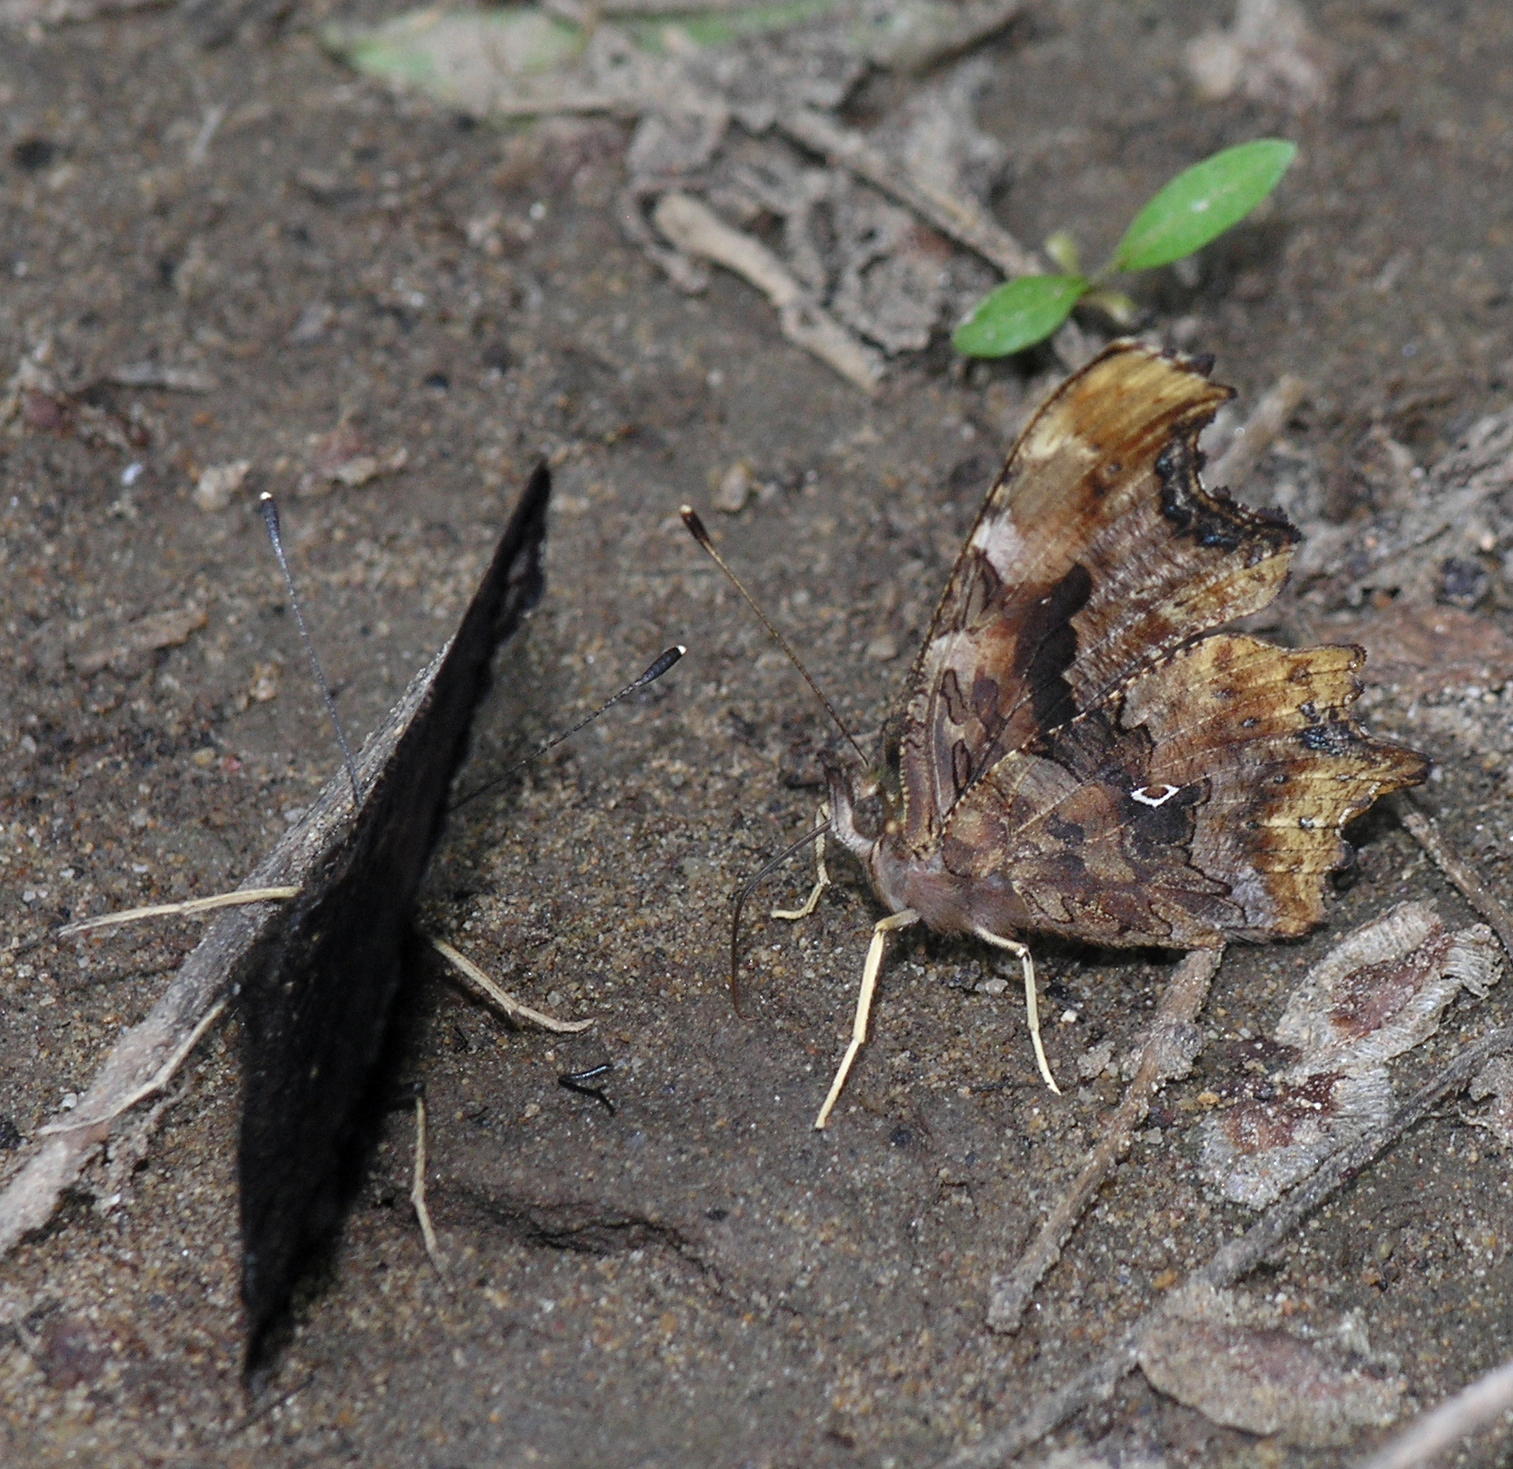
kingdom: Animalia
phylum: Arthropoda
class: Insecta
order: Lepidoptera
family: Nymphalidae
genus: Polygonia
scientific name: Polygonia c-album
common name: Comma
